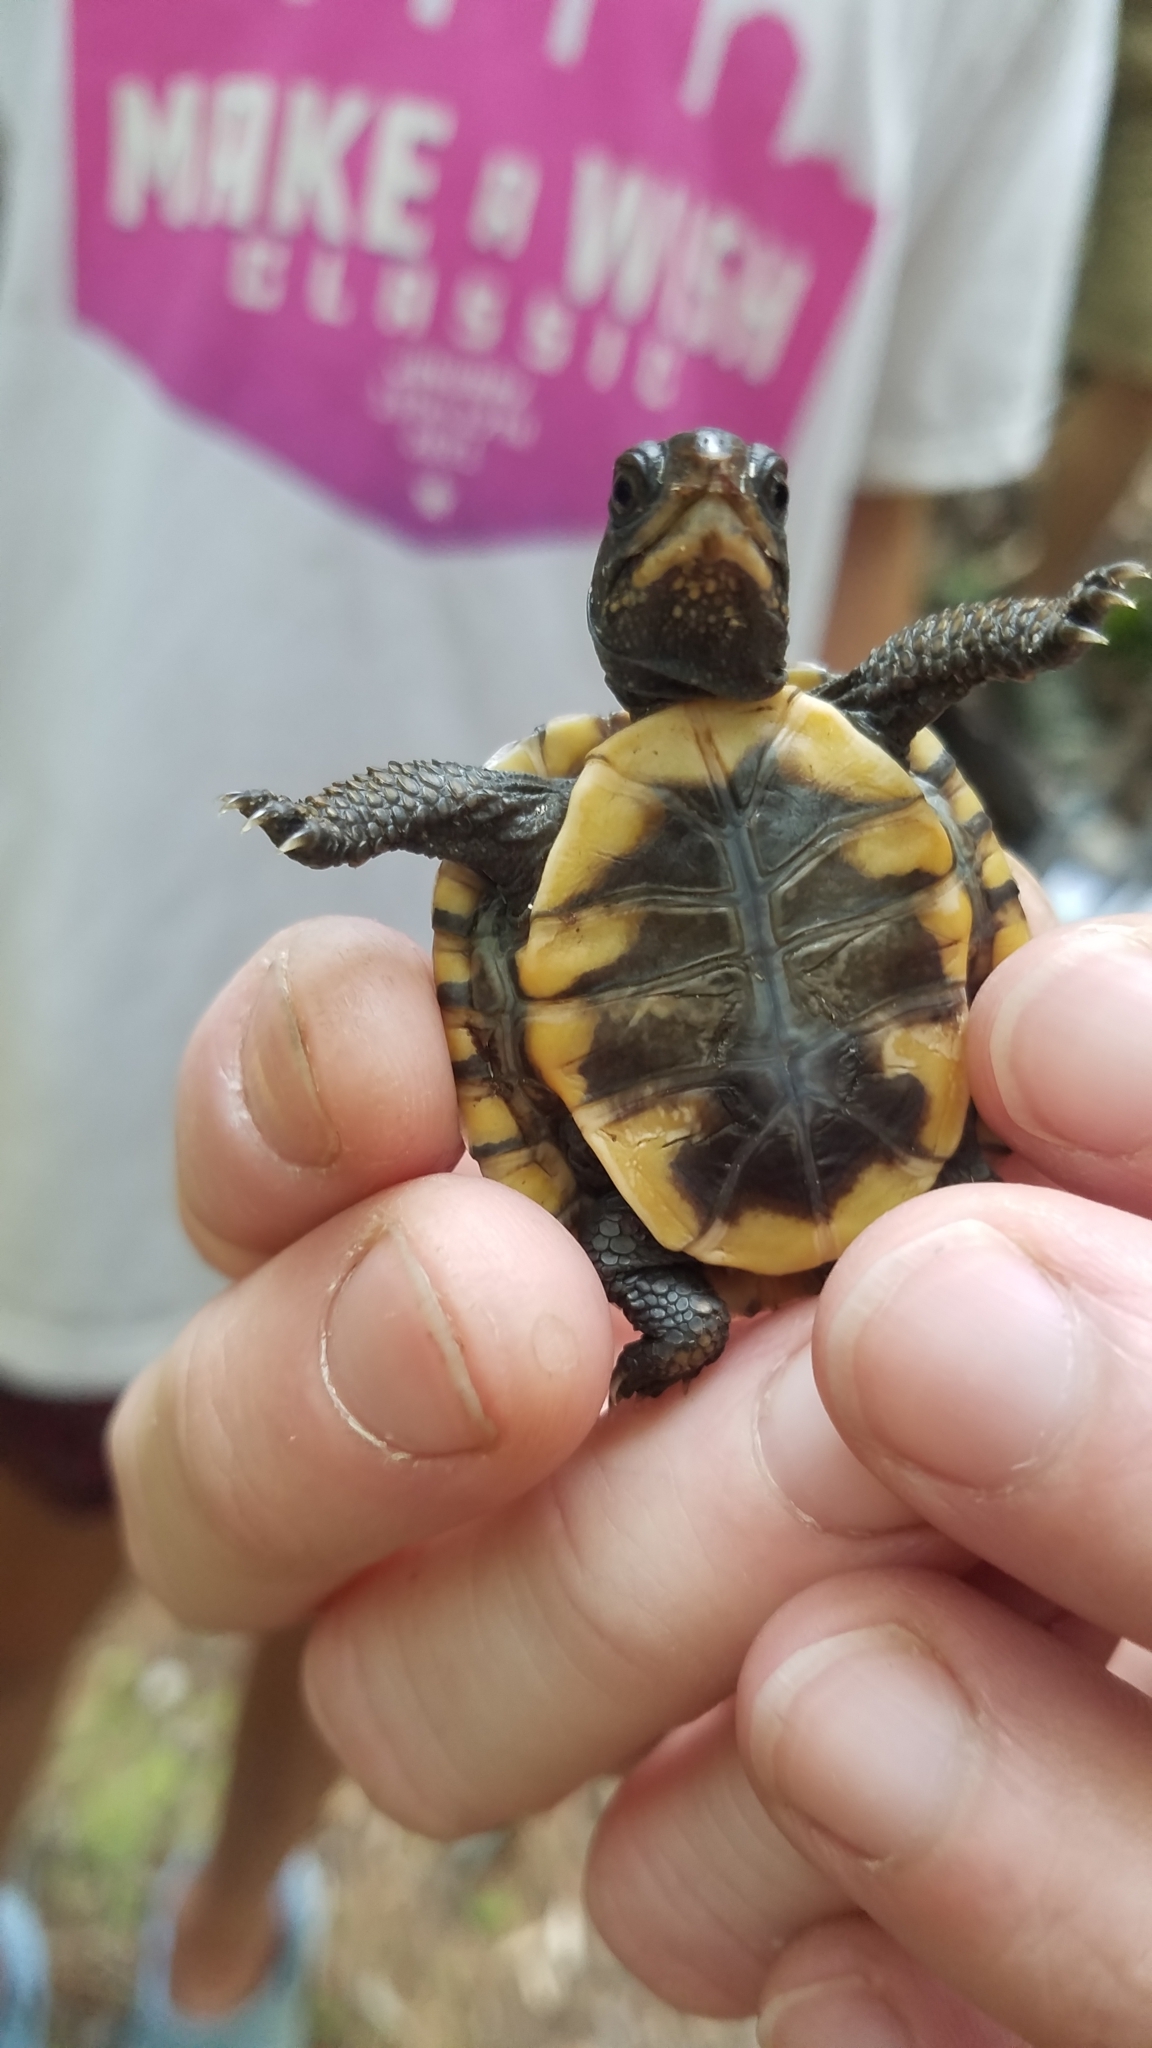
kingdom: Animalia
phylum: Chordata
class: Testudines
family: Emydidae
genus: Terrapene
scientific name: Terrapene carolina
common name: Common box turtle
